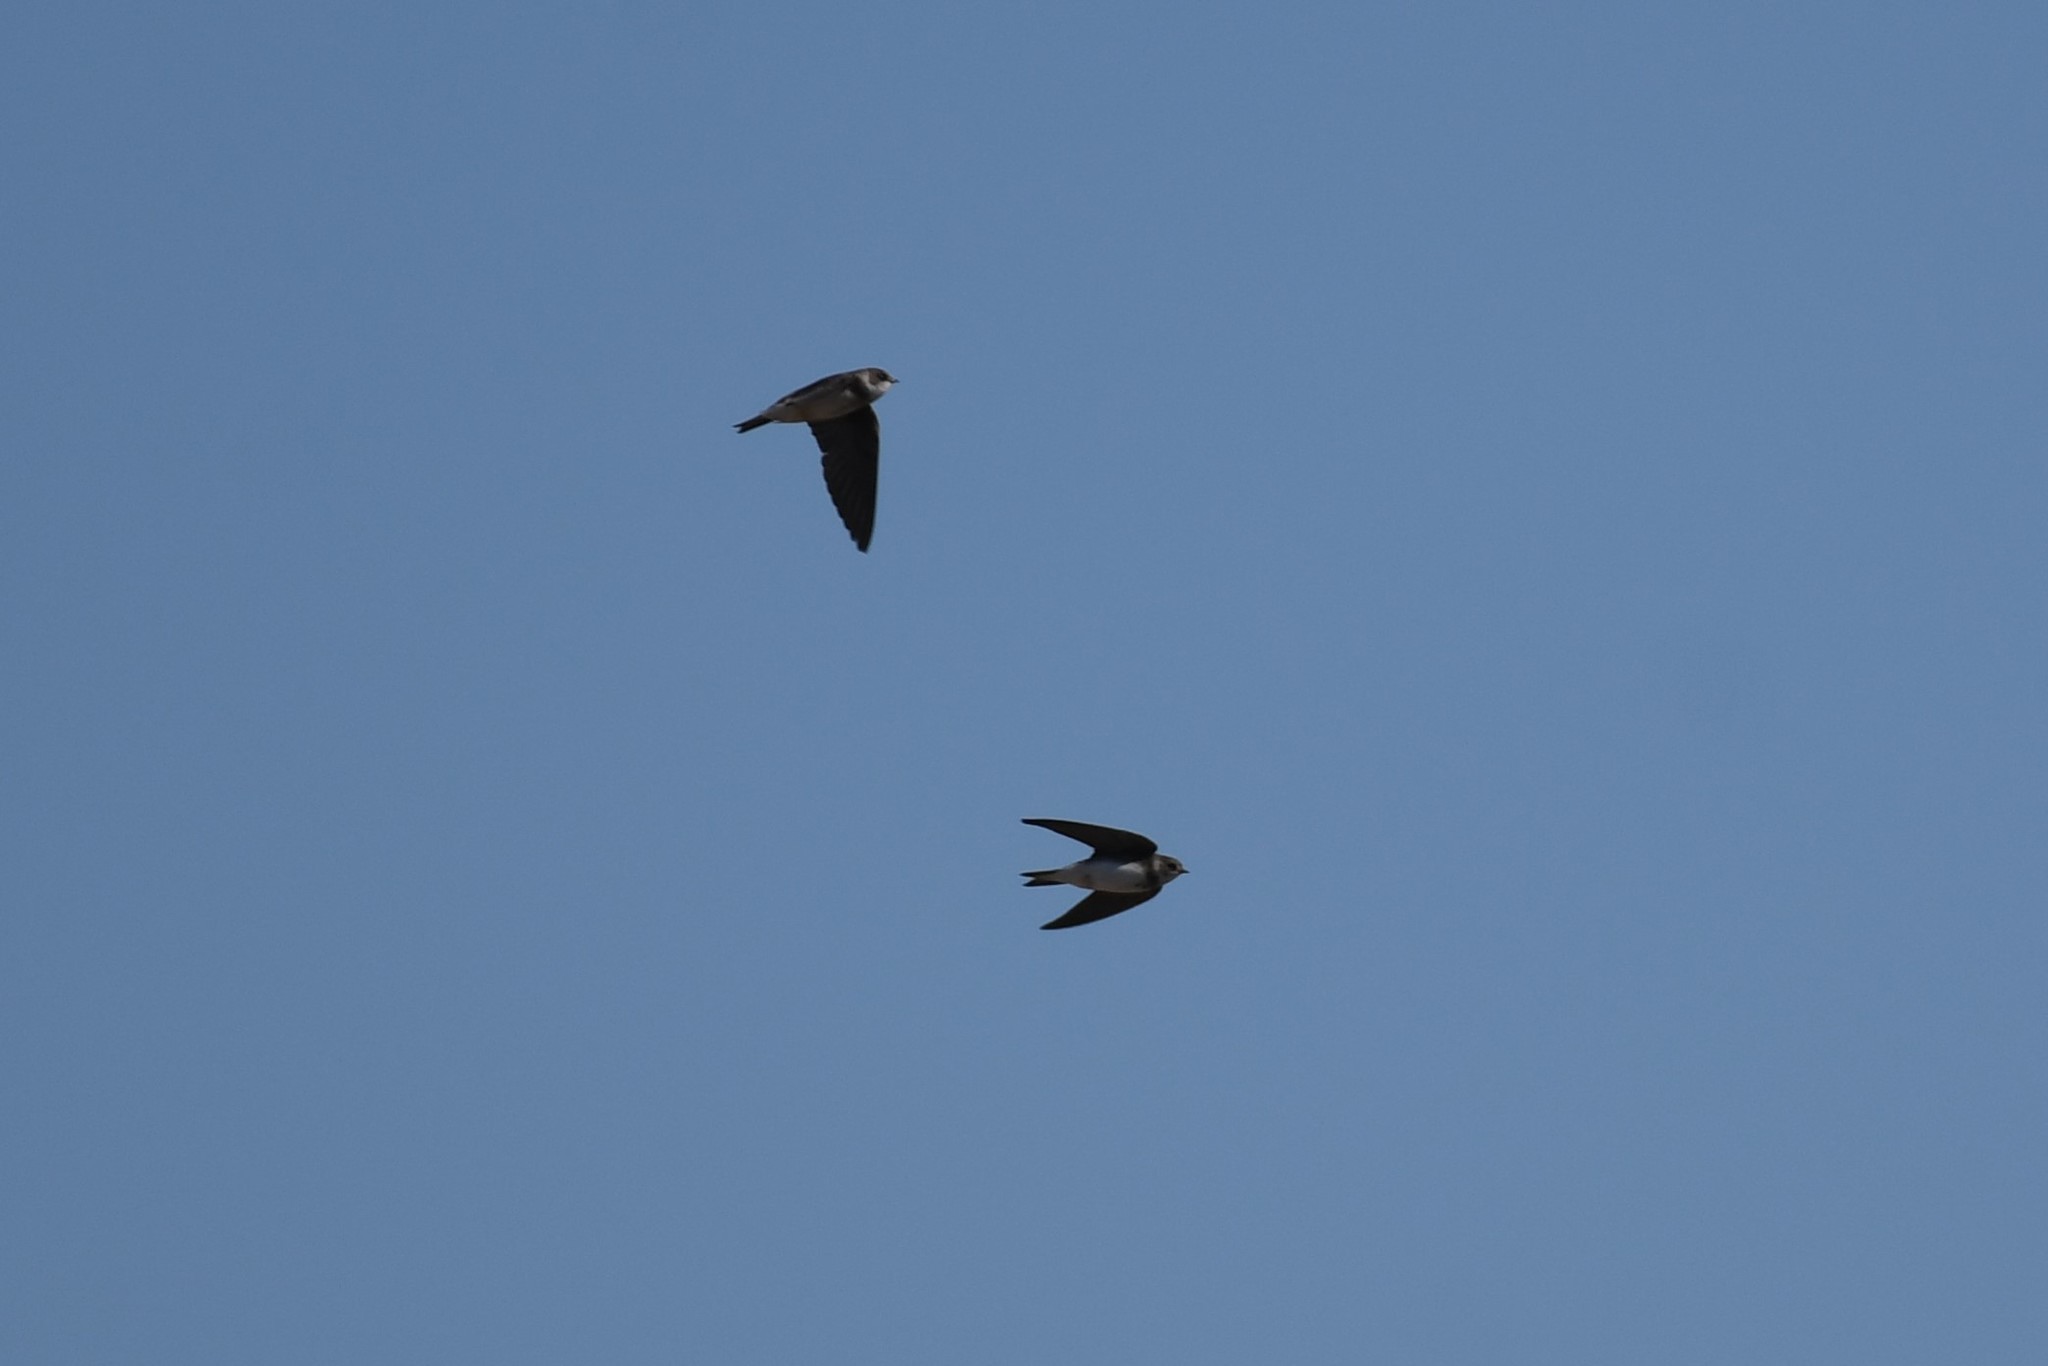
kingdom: Animalia
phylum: Chordata
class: Aves
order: Passeriformes
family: Hirundinidae
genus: Riparia
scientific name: Riparia riparia
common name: Sand martin
